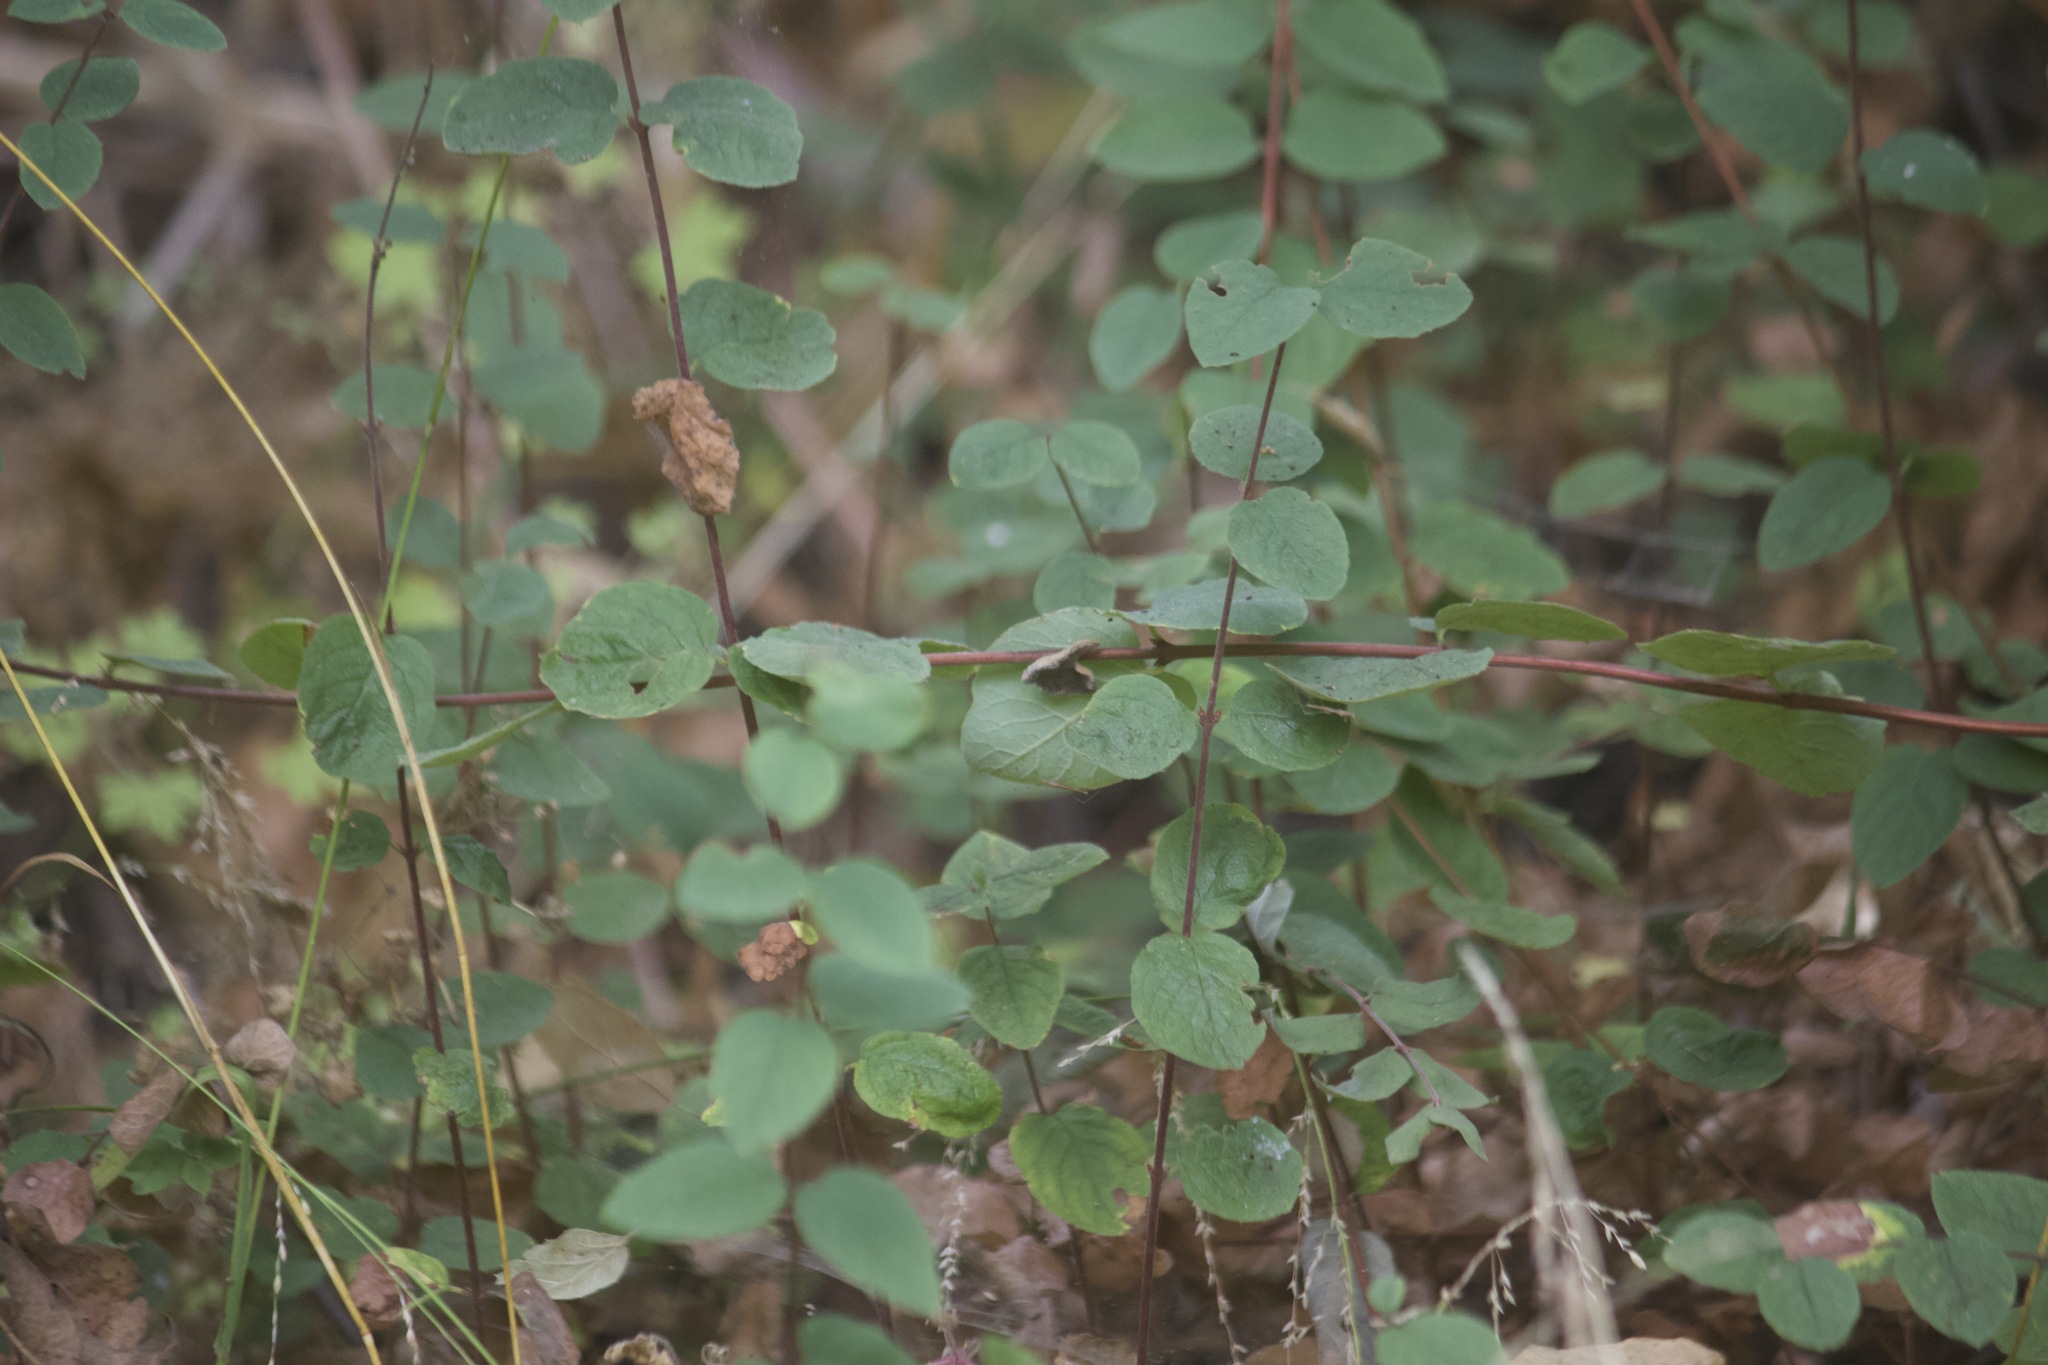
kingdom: Plantae
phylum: Tracheophyta
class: Magnoliopsida
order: Dipsacales
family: Caprifoliaceae
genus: Symphoricarpos
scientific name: Symphoricarpos mollis
